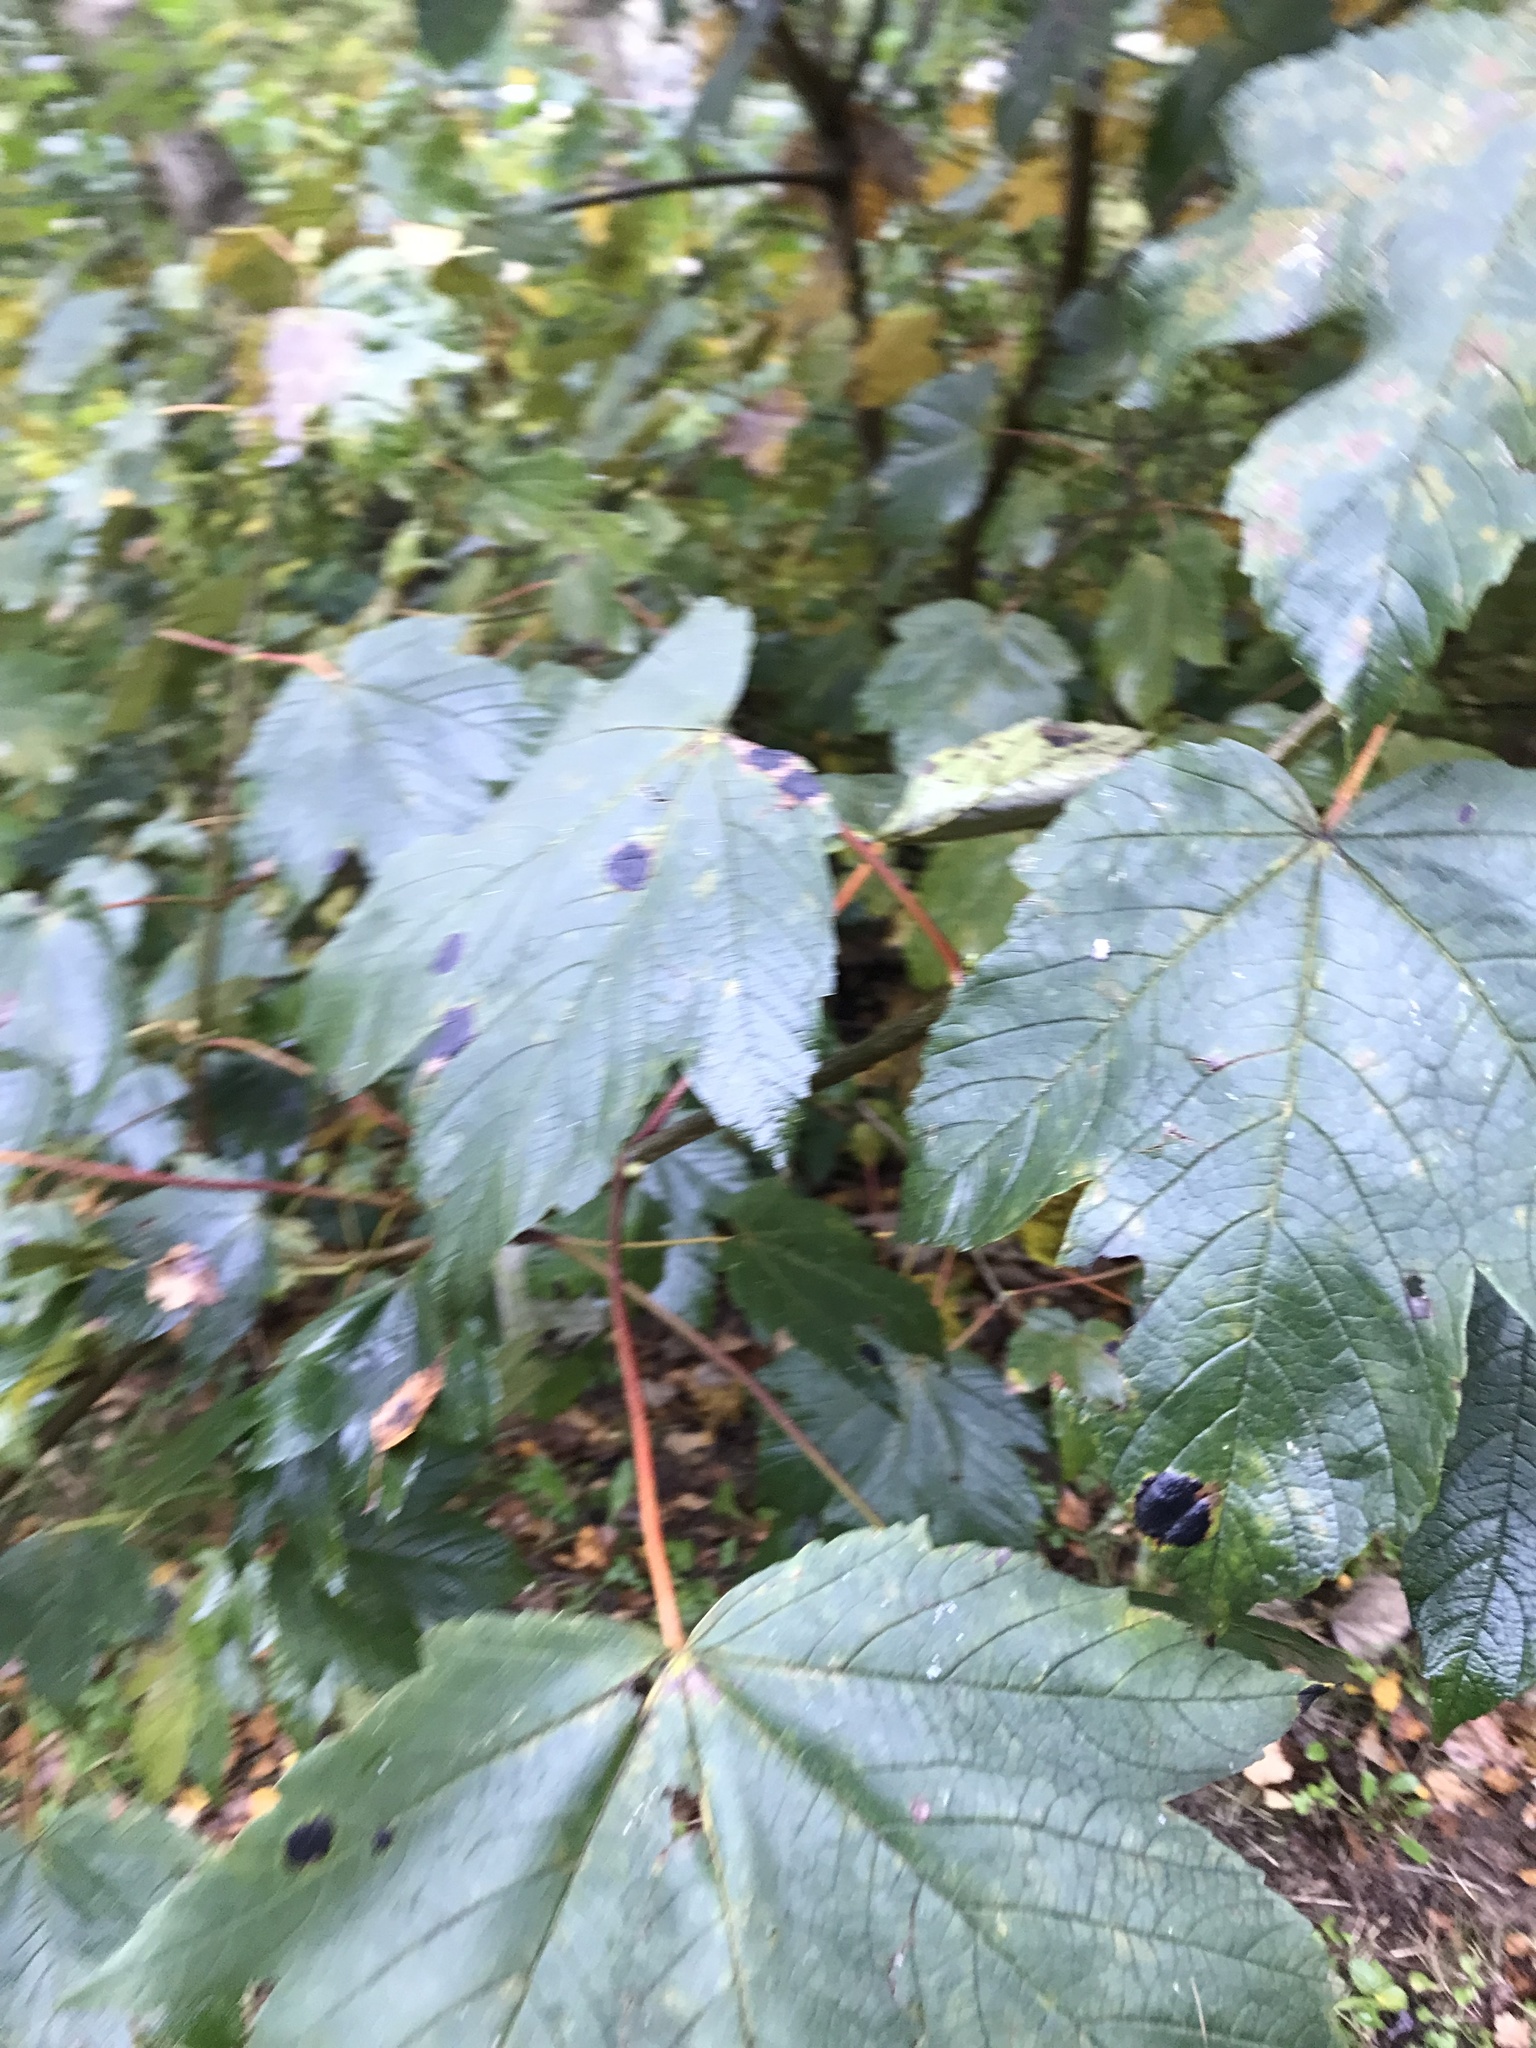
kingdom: Plantae
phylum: Tracheophyta
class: Magnoliopsida
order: Sapindales
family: Sapindaceae
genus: Acer
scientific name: Acer pseudoplatanus
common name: Sycamore
